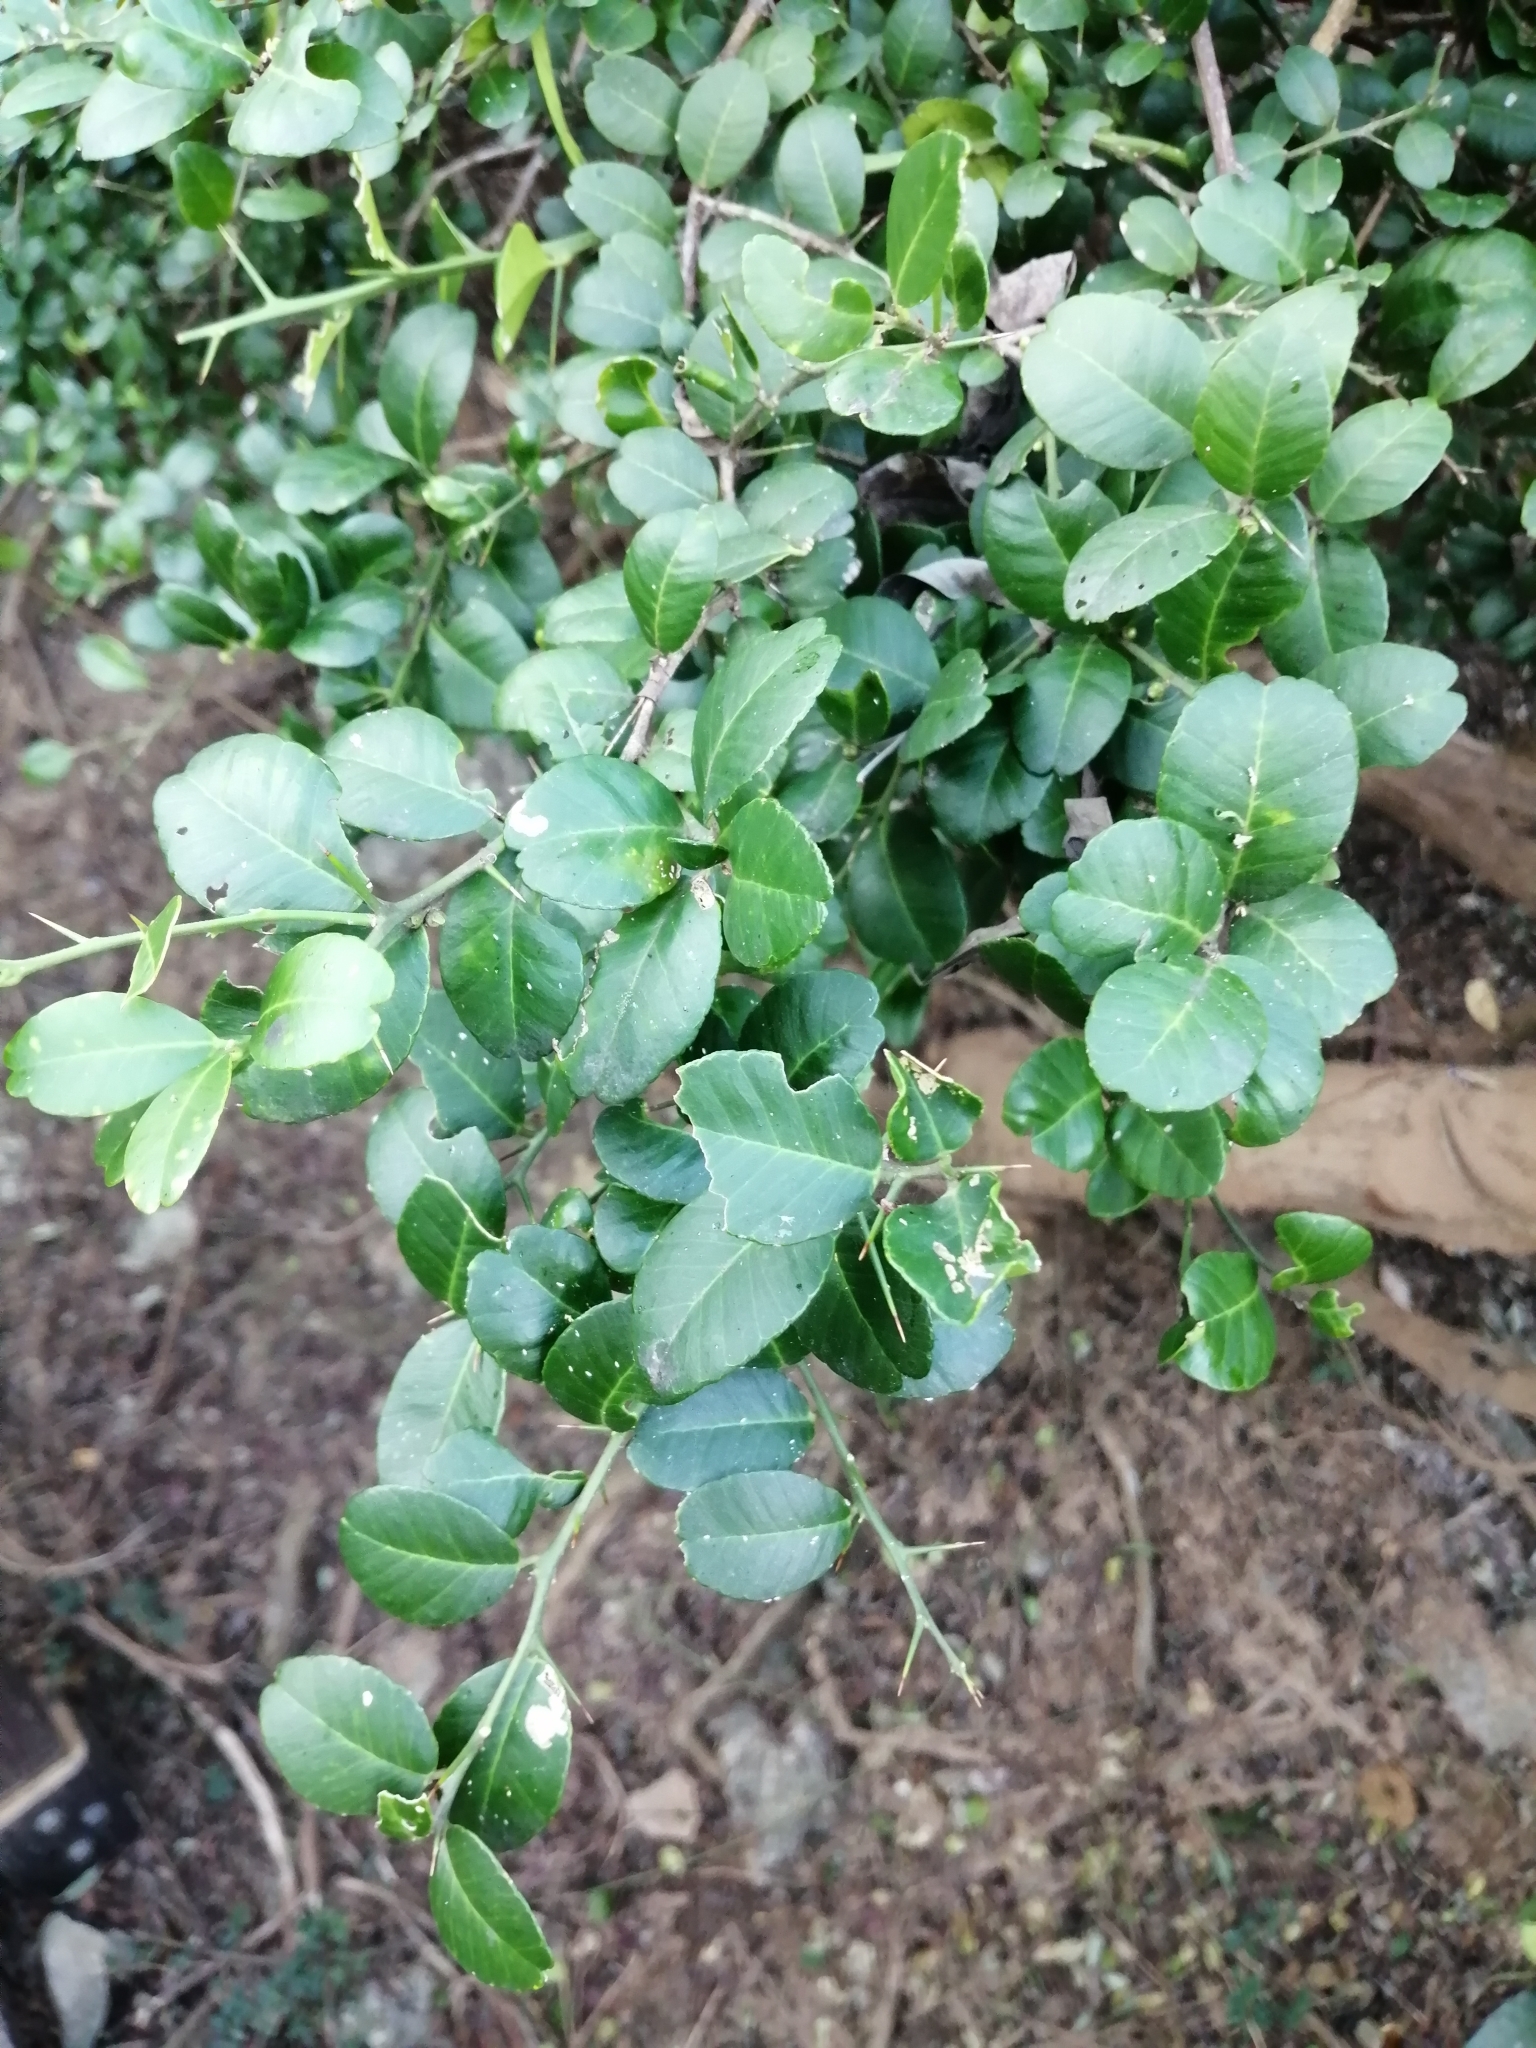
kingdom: Plantae
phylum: Tracheophyta
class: Magnoliopsida
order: Sapindales
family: Rutaceae
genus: Atalantia
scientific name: Atalantia buxifolia
